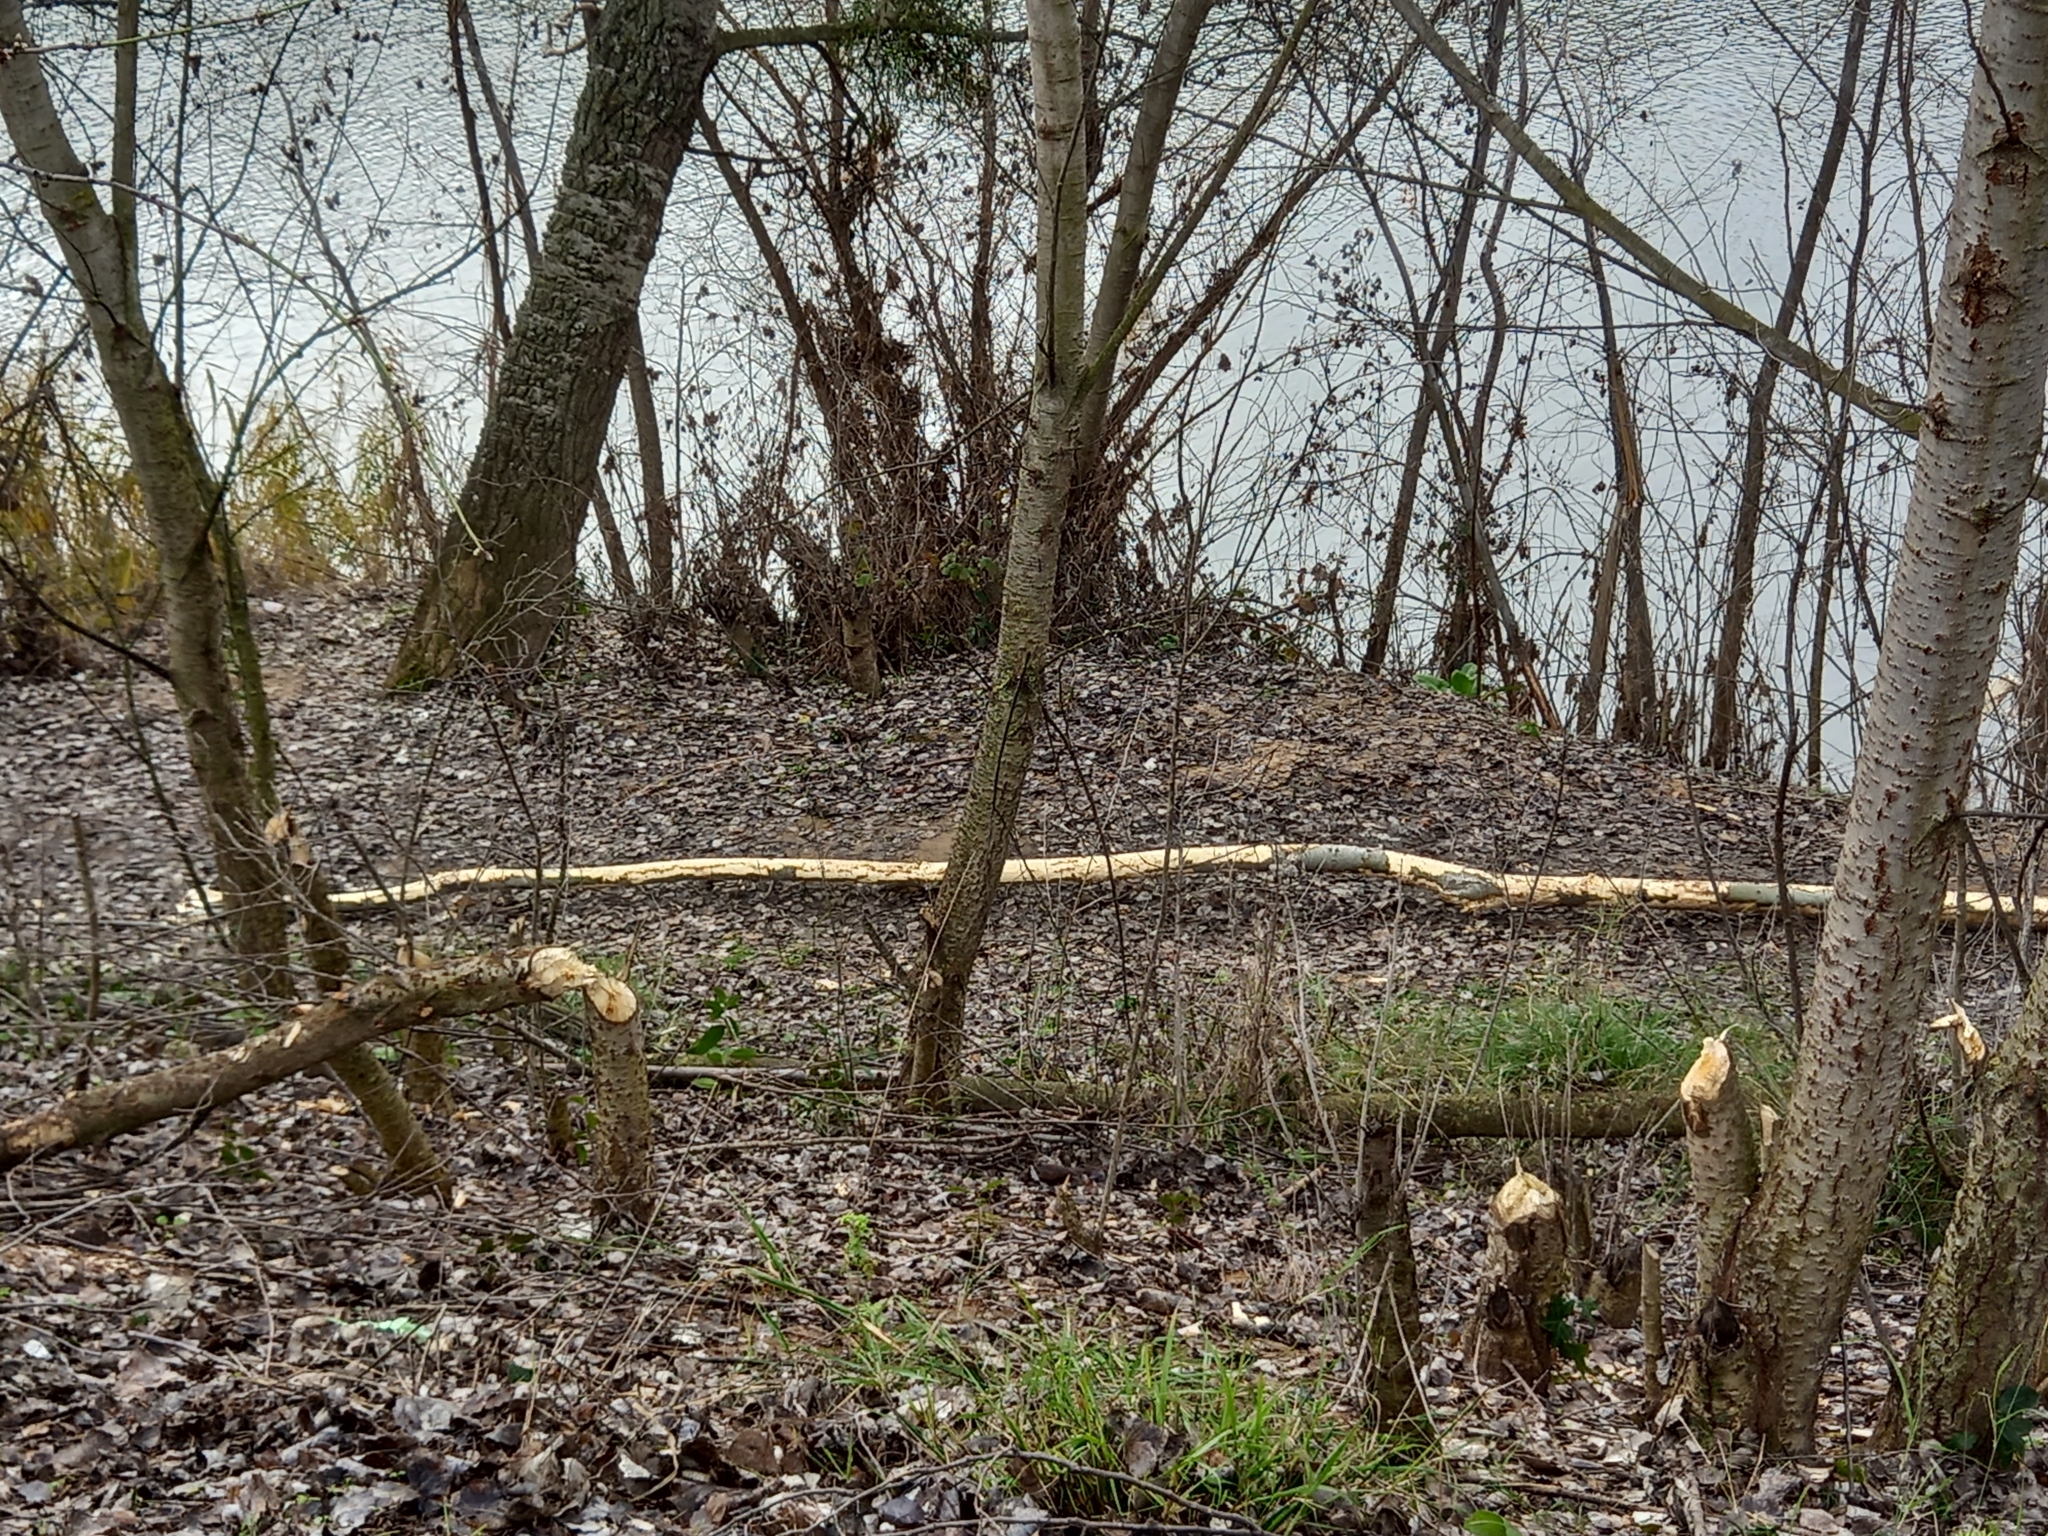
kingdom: Animalia
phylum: Chordata
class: Mammalia
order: Rodentia
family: Castoridae
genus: Castor
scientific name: Castor fiber
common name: Eurasian beaver
